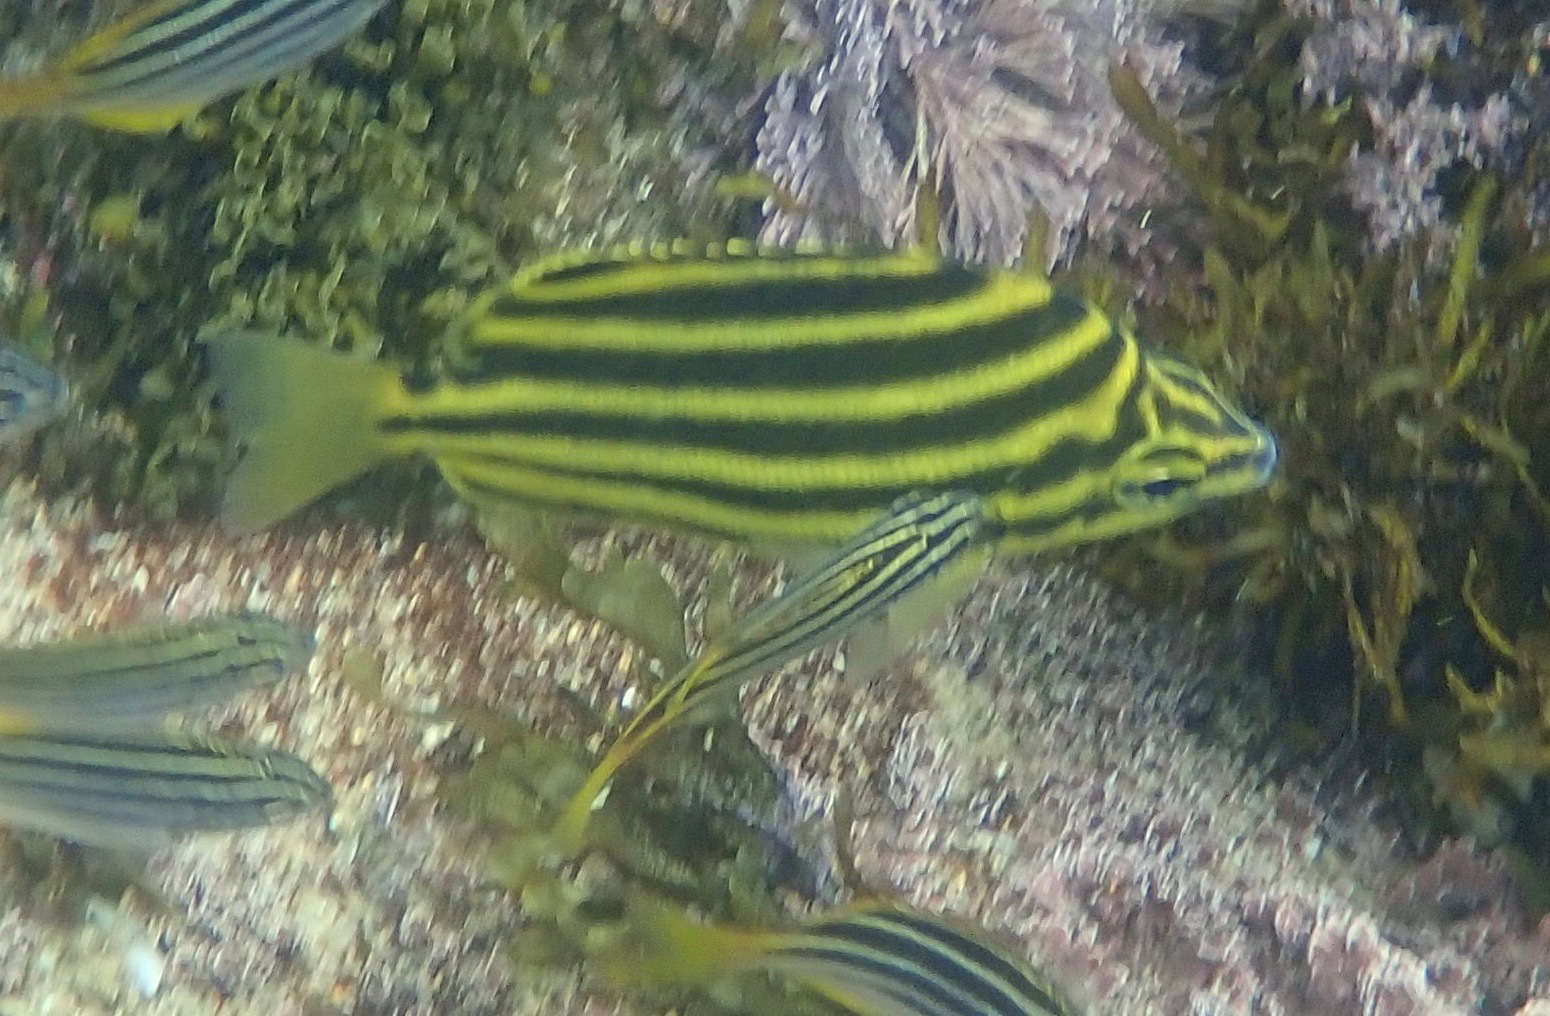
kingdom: Animalia
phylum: Chordata
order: Perciformes
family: Kyphosidae
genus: Microcanthus
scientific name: Microcanthus joyceae
